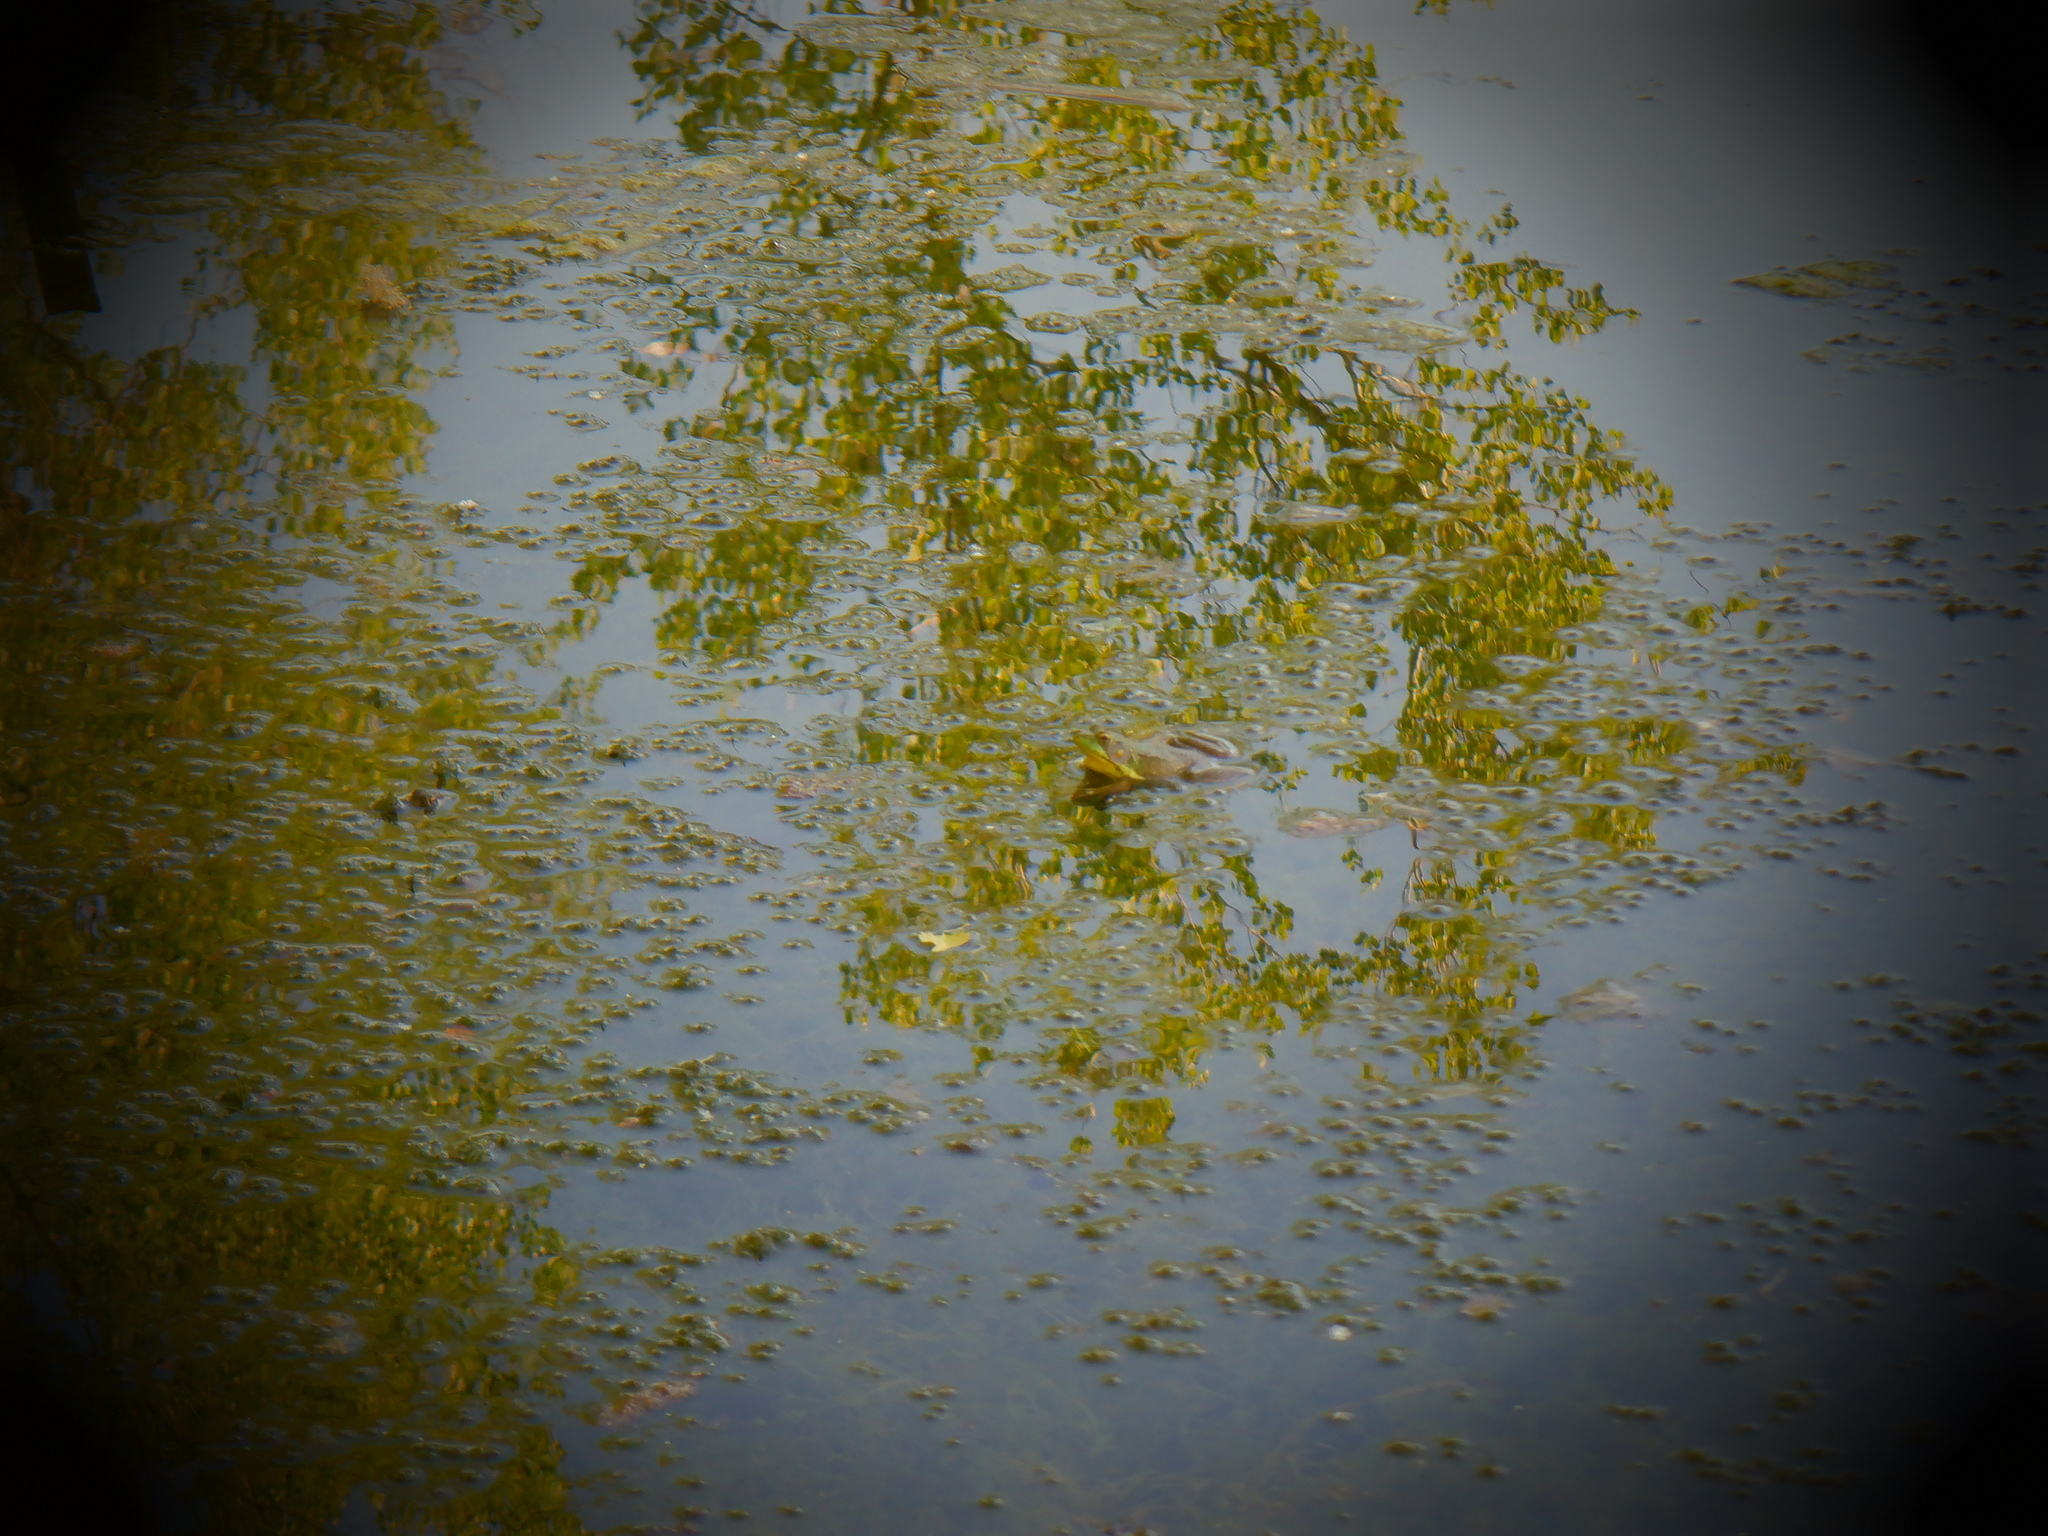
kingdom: Animalia
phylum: Chordata
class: Amphibia
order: Anura
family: Ranidae
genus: Lithobates
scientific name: Lithobates clamitans
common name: Green frog
